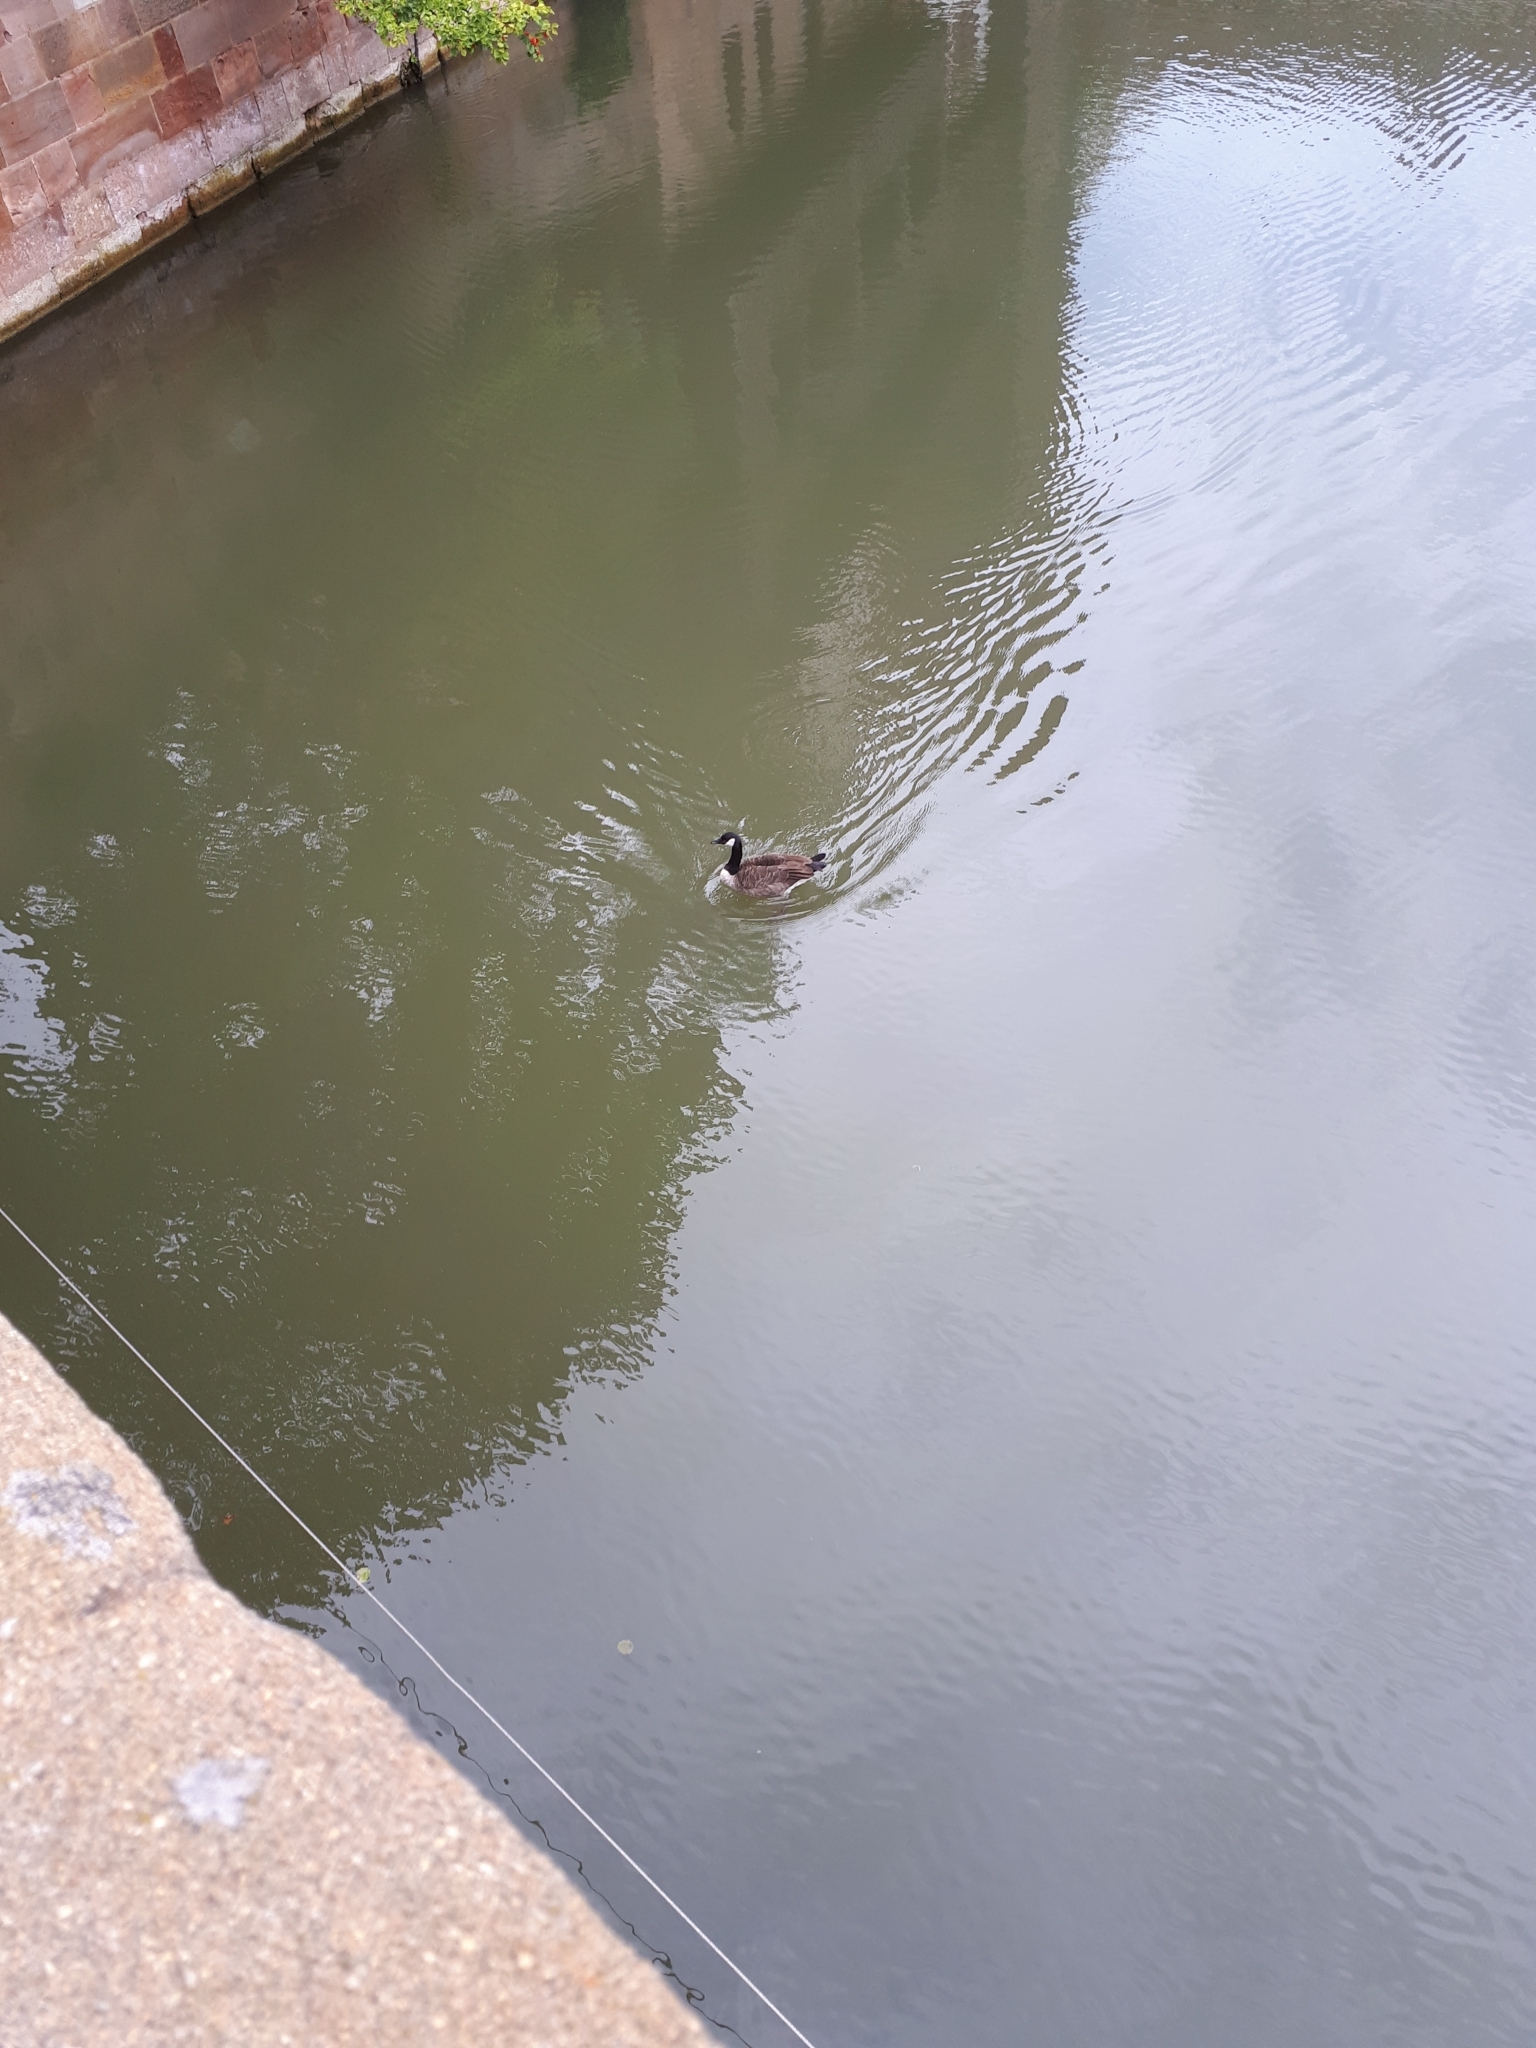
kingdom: Animalia
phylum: Chordata
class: Aves
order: Anseriformes
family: Anatidae
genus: Branta
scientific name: Branta canadensis
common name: Canada goose
